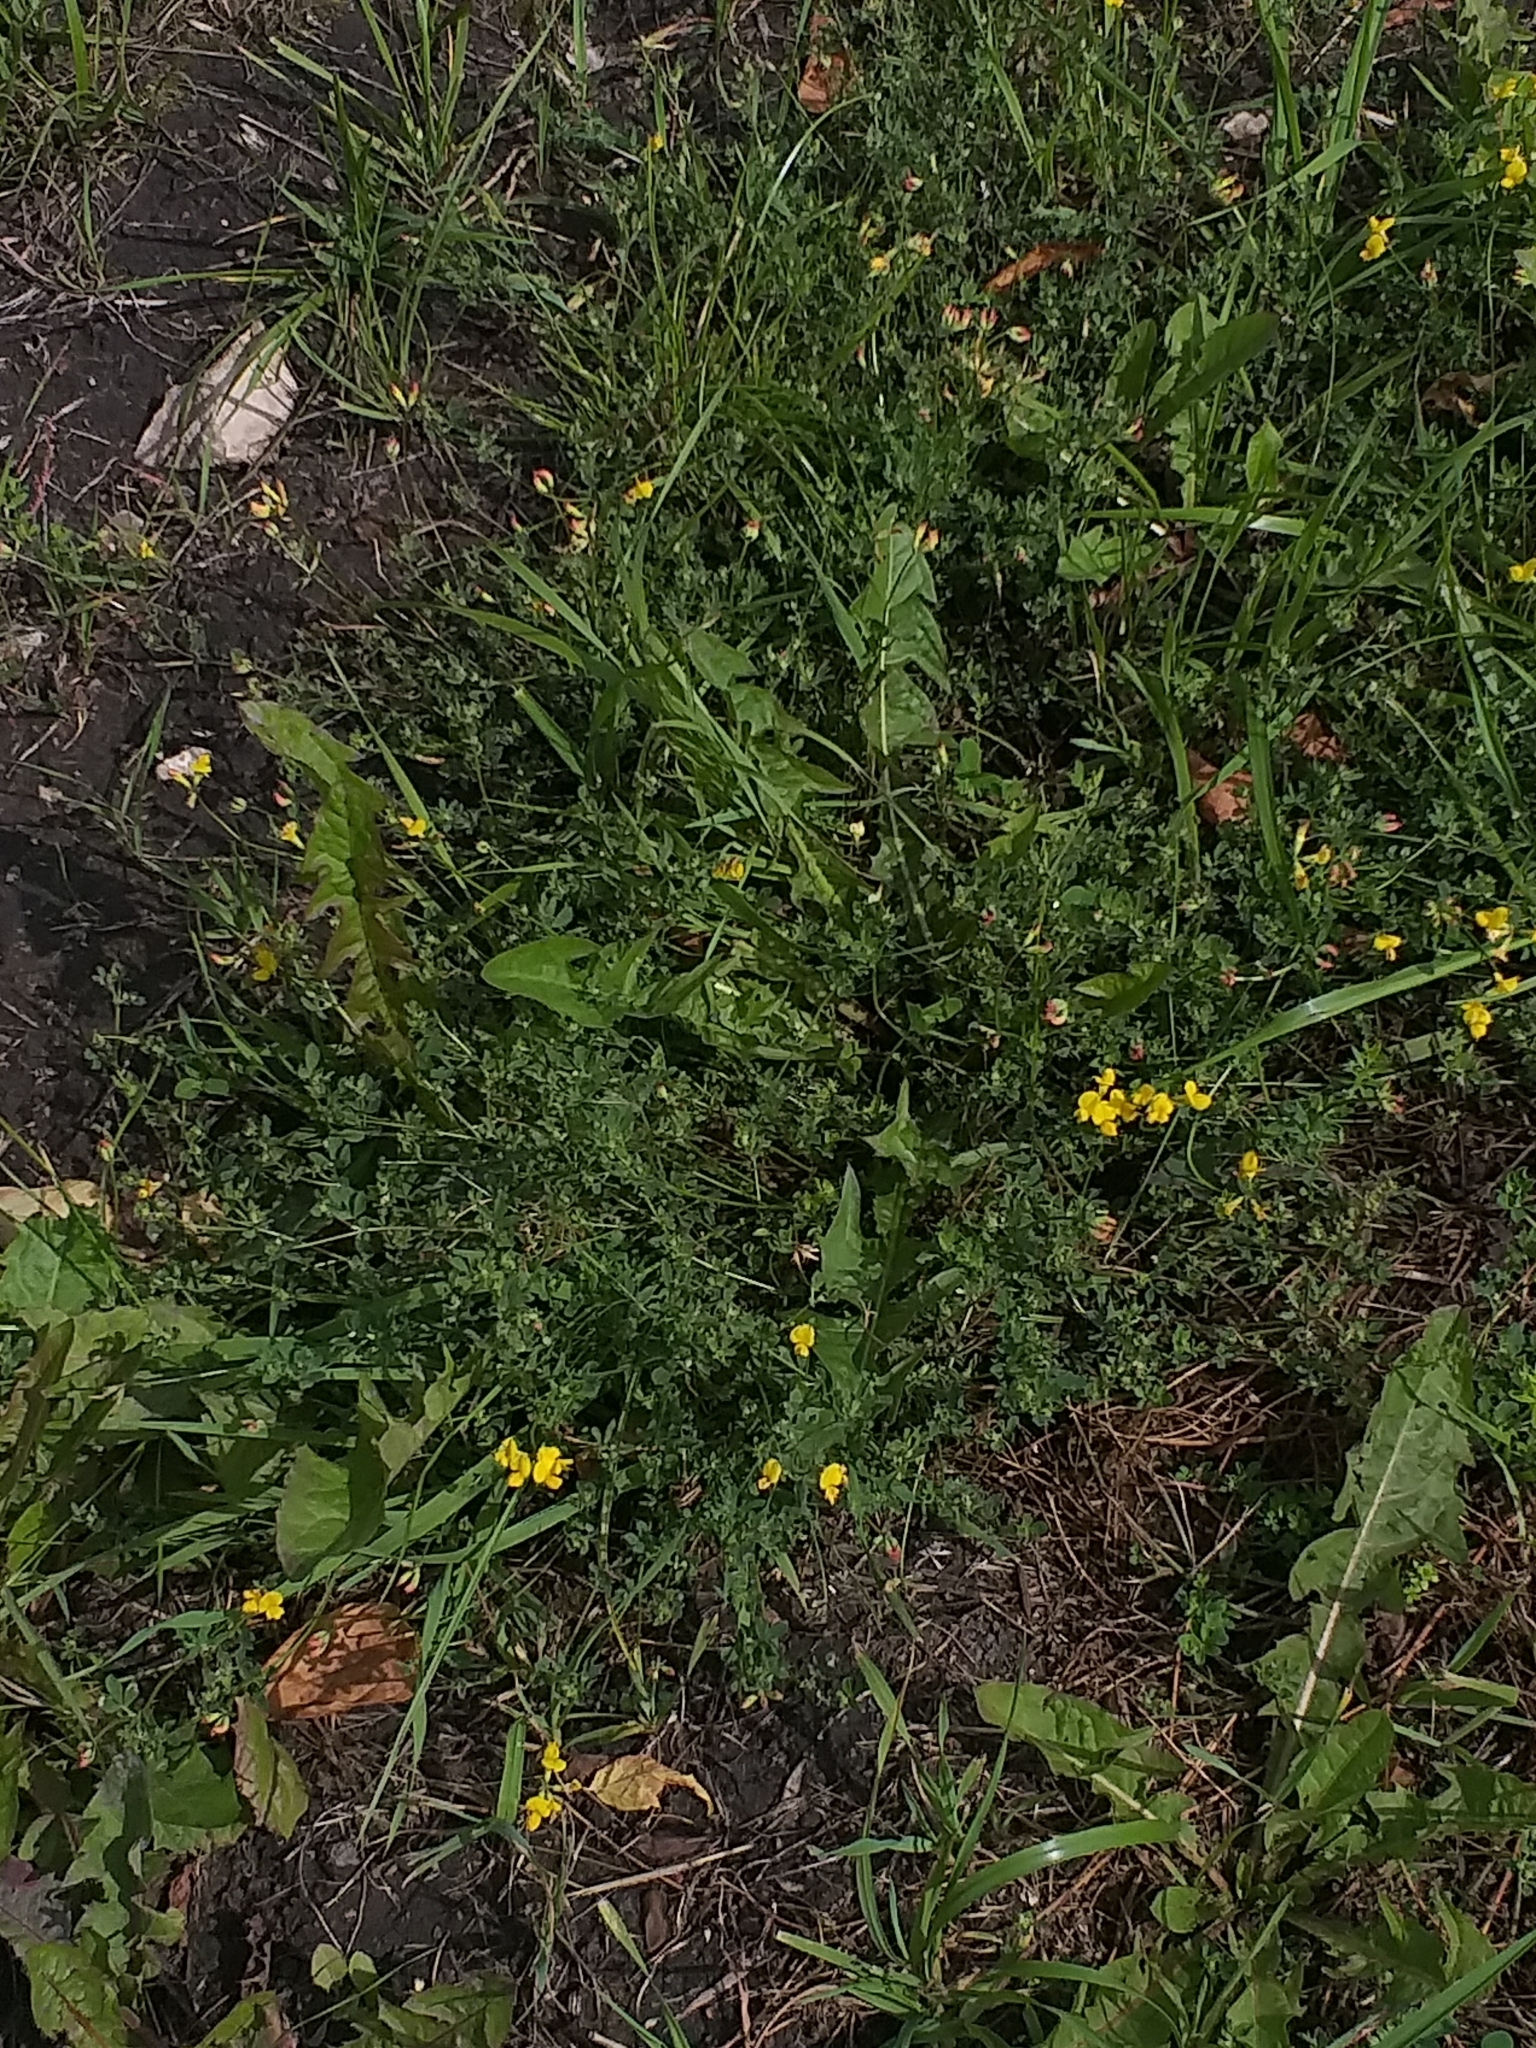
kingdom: Plantae
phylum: Tracheophyta
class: Magnoliopsida
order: Fabales
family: Fabaceae
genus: Lotus
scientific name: Lotus corniculatus
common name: Common bird's-foot-trefoil
